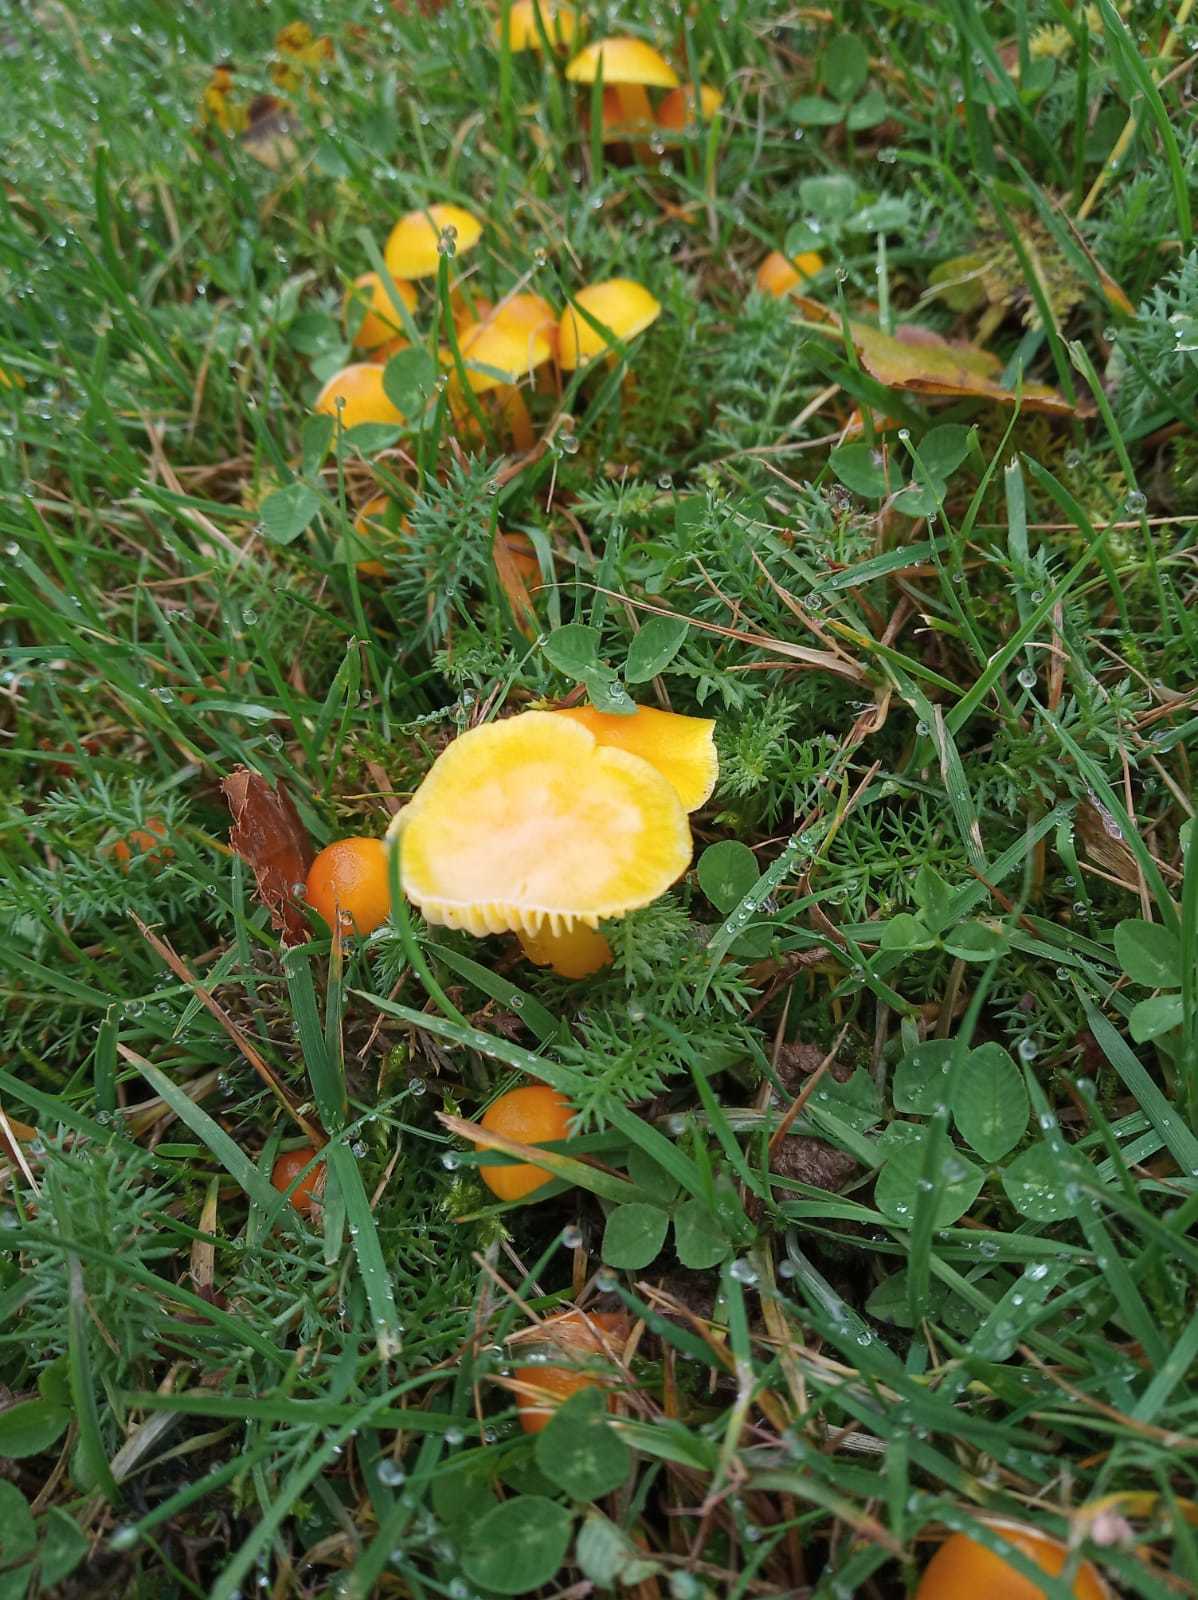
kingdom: Fungi
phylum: Basidiomycota
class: Agaricomycetes
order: Agaricales
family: Hygrophoraceae
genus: Hygrocybe
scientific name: Hygrocybe ceracea
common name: Butter waxcap
